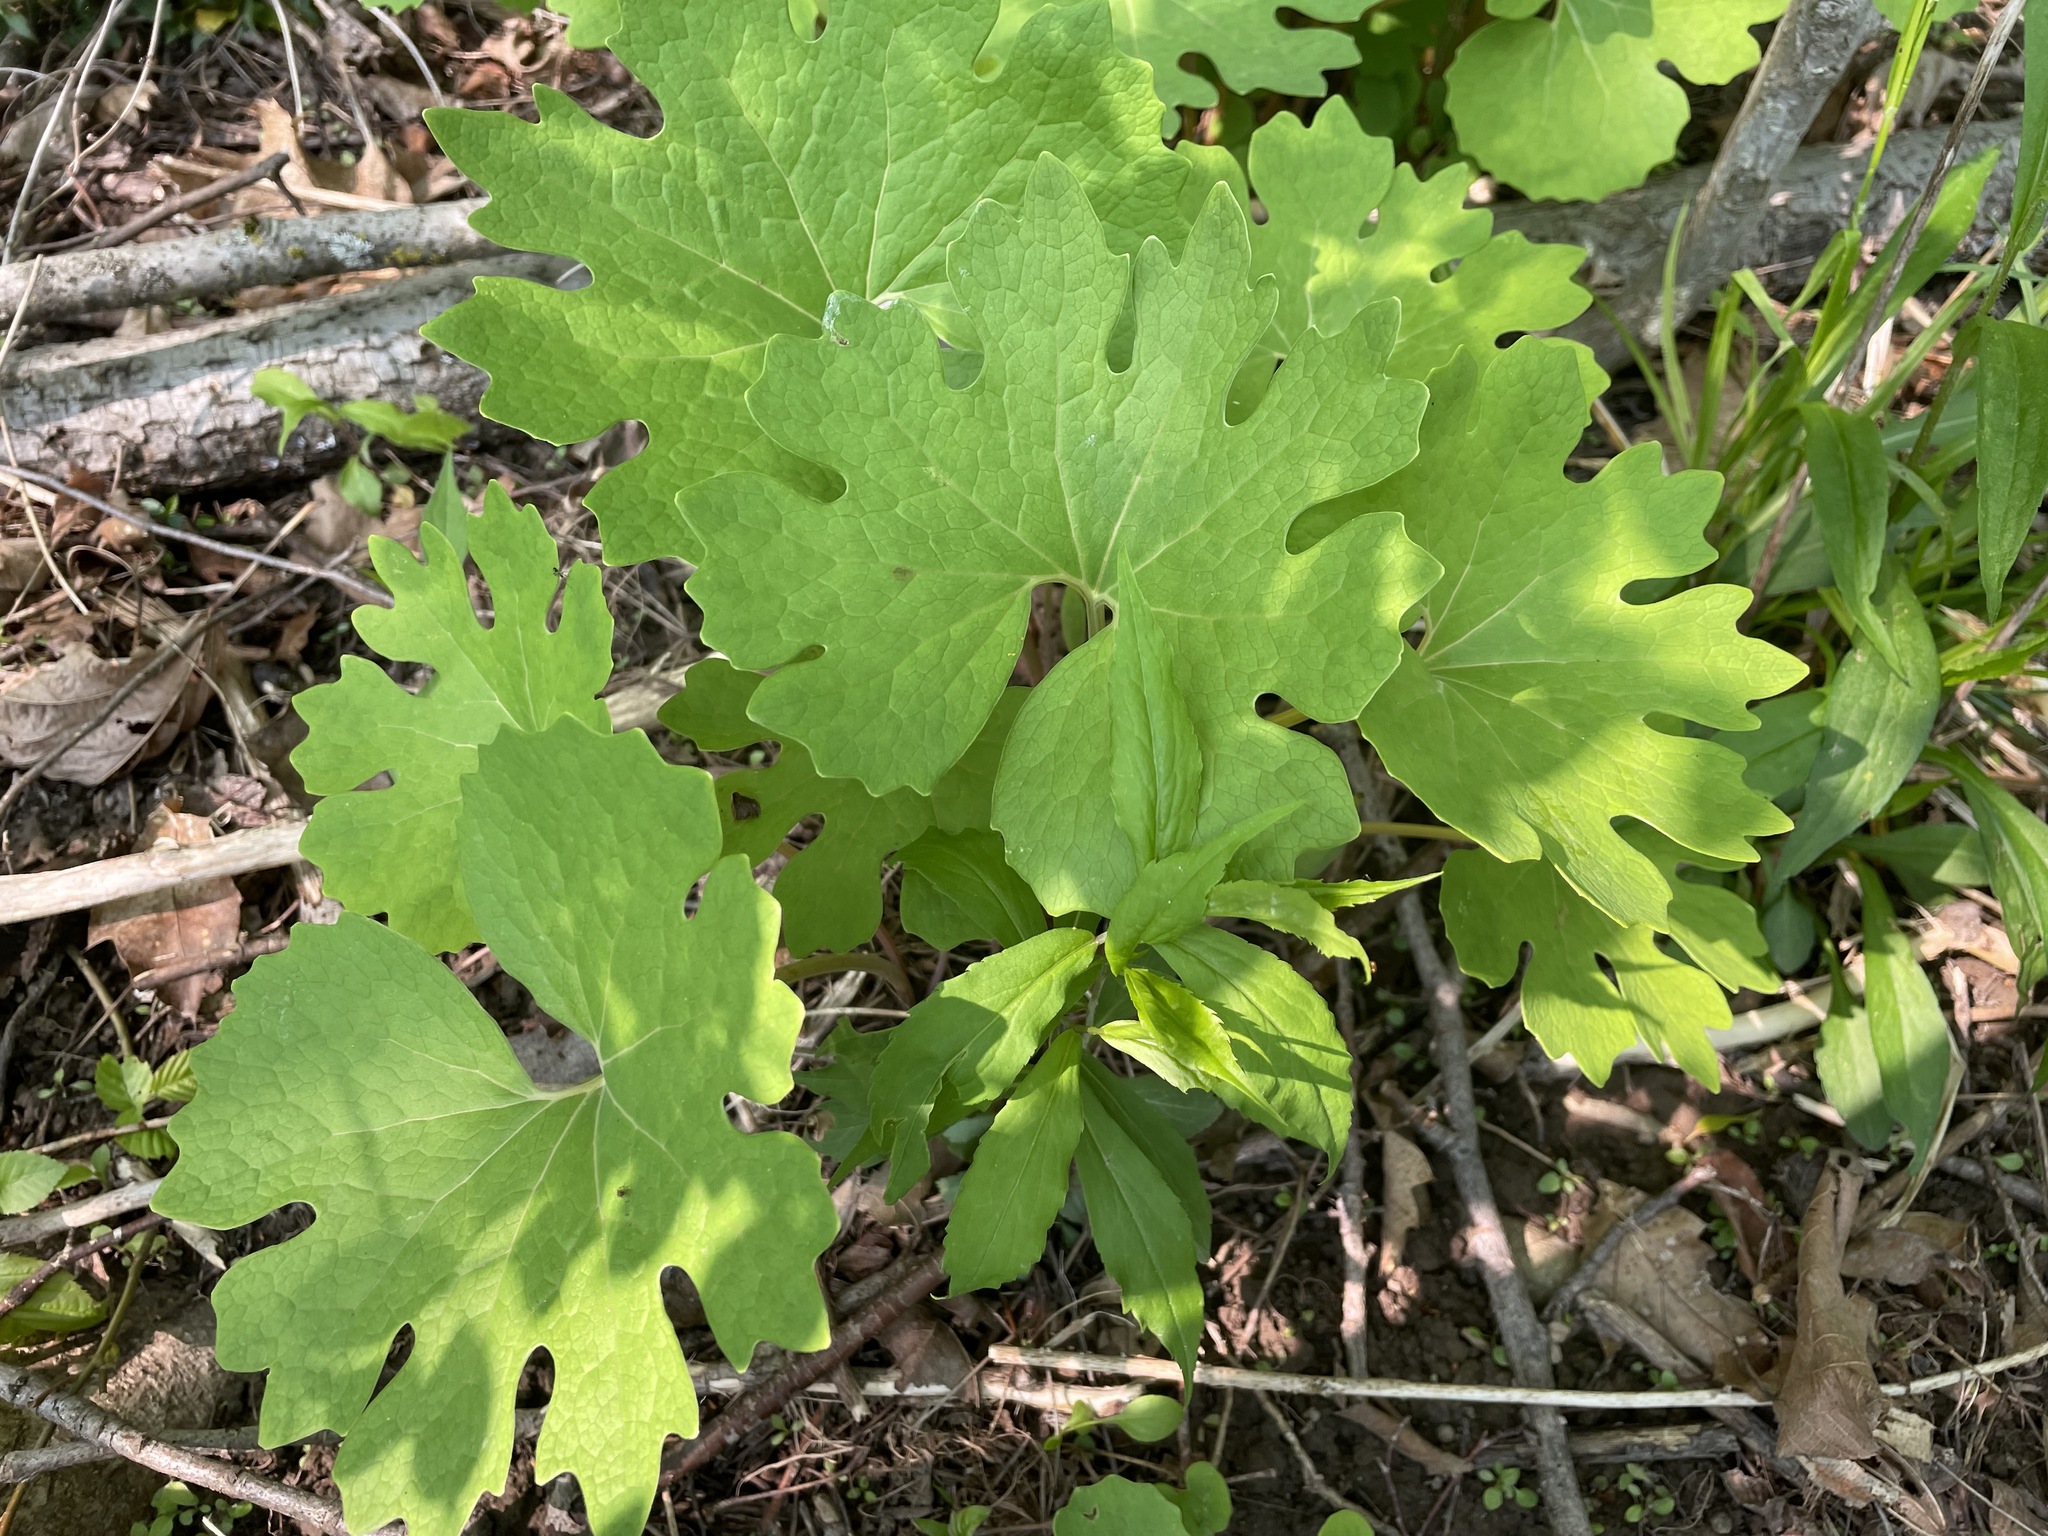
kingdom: Plantae
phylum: Tracheophyta
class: Magnoliopsida
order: Ranunculales
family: Papaveraceae
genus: Sanguinaria
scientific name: Sanguinaria canadensis
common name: Bloodroot
